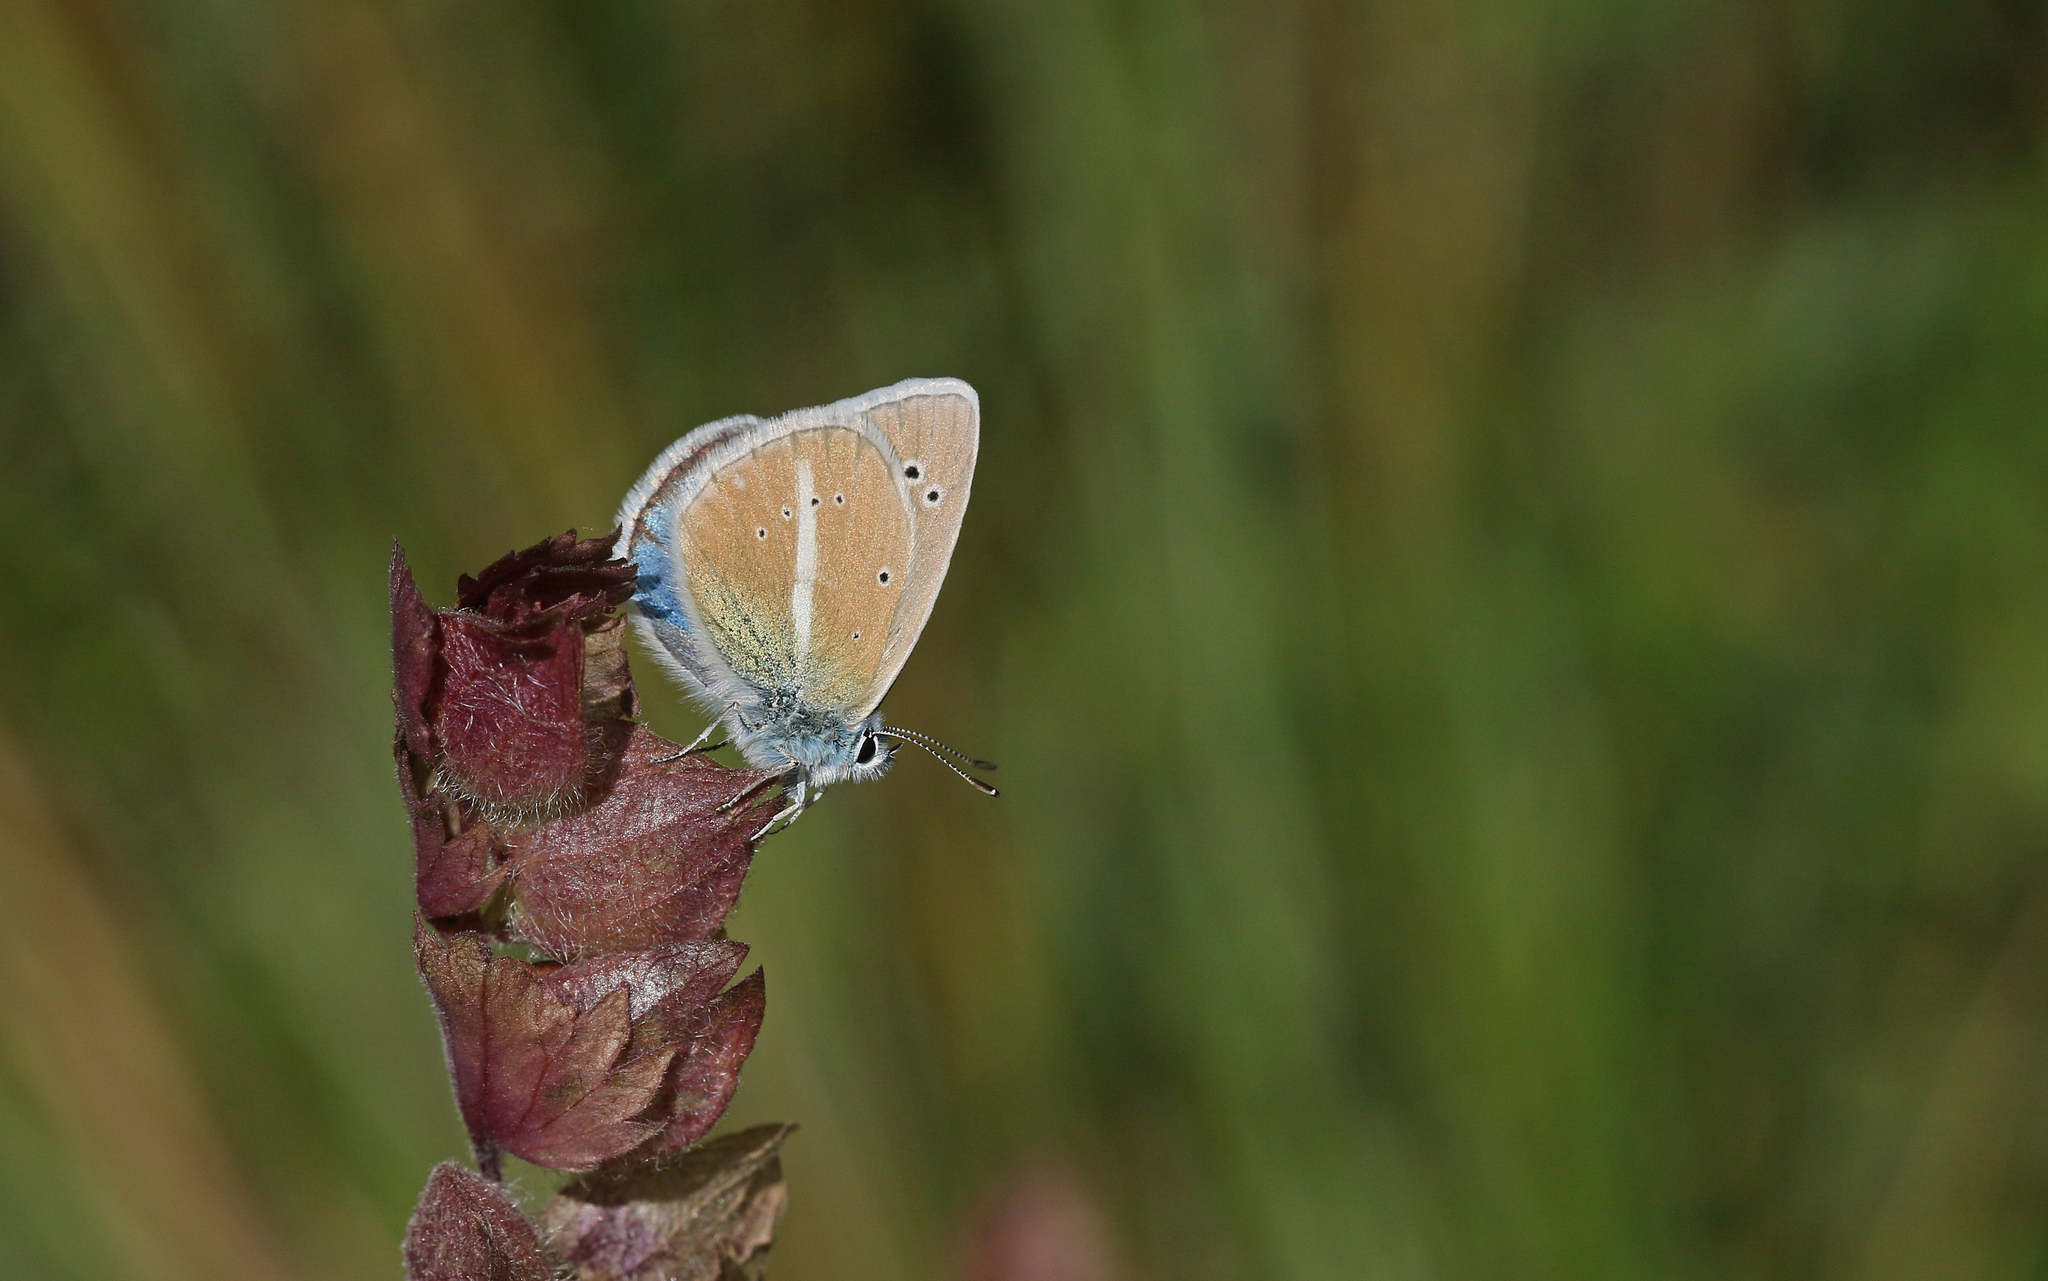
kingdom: Animalia
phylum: Arthropoda
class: Insecta
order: Lepidoptera
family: Lycaenidae
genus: Agrodiaetus
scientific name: Agrodiaetus damon
